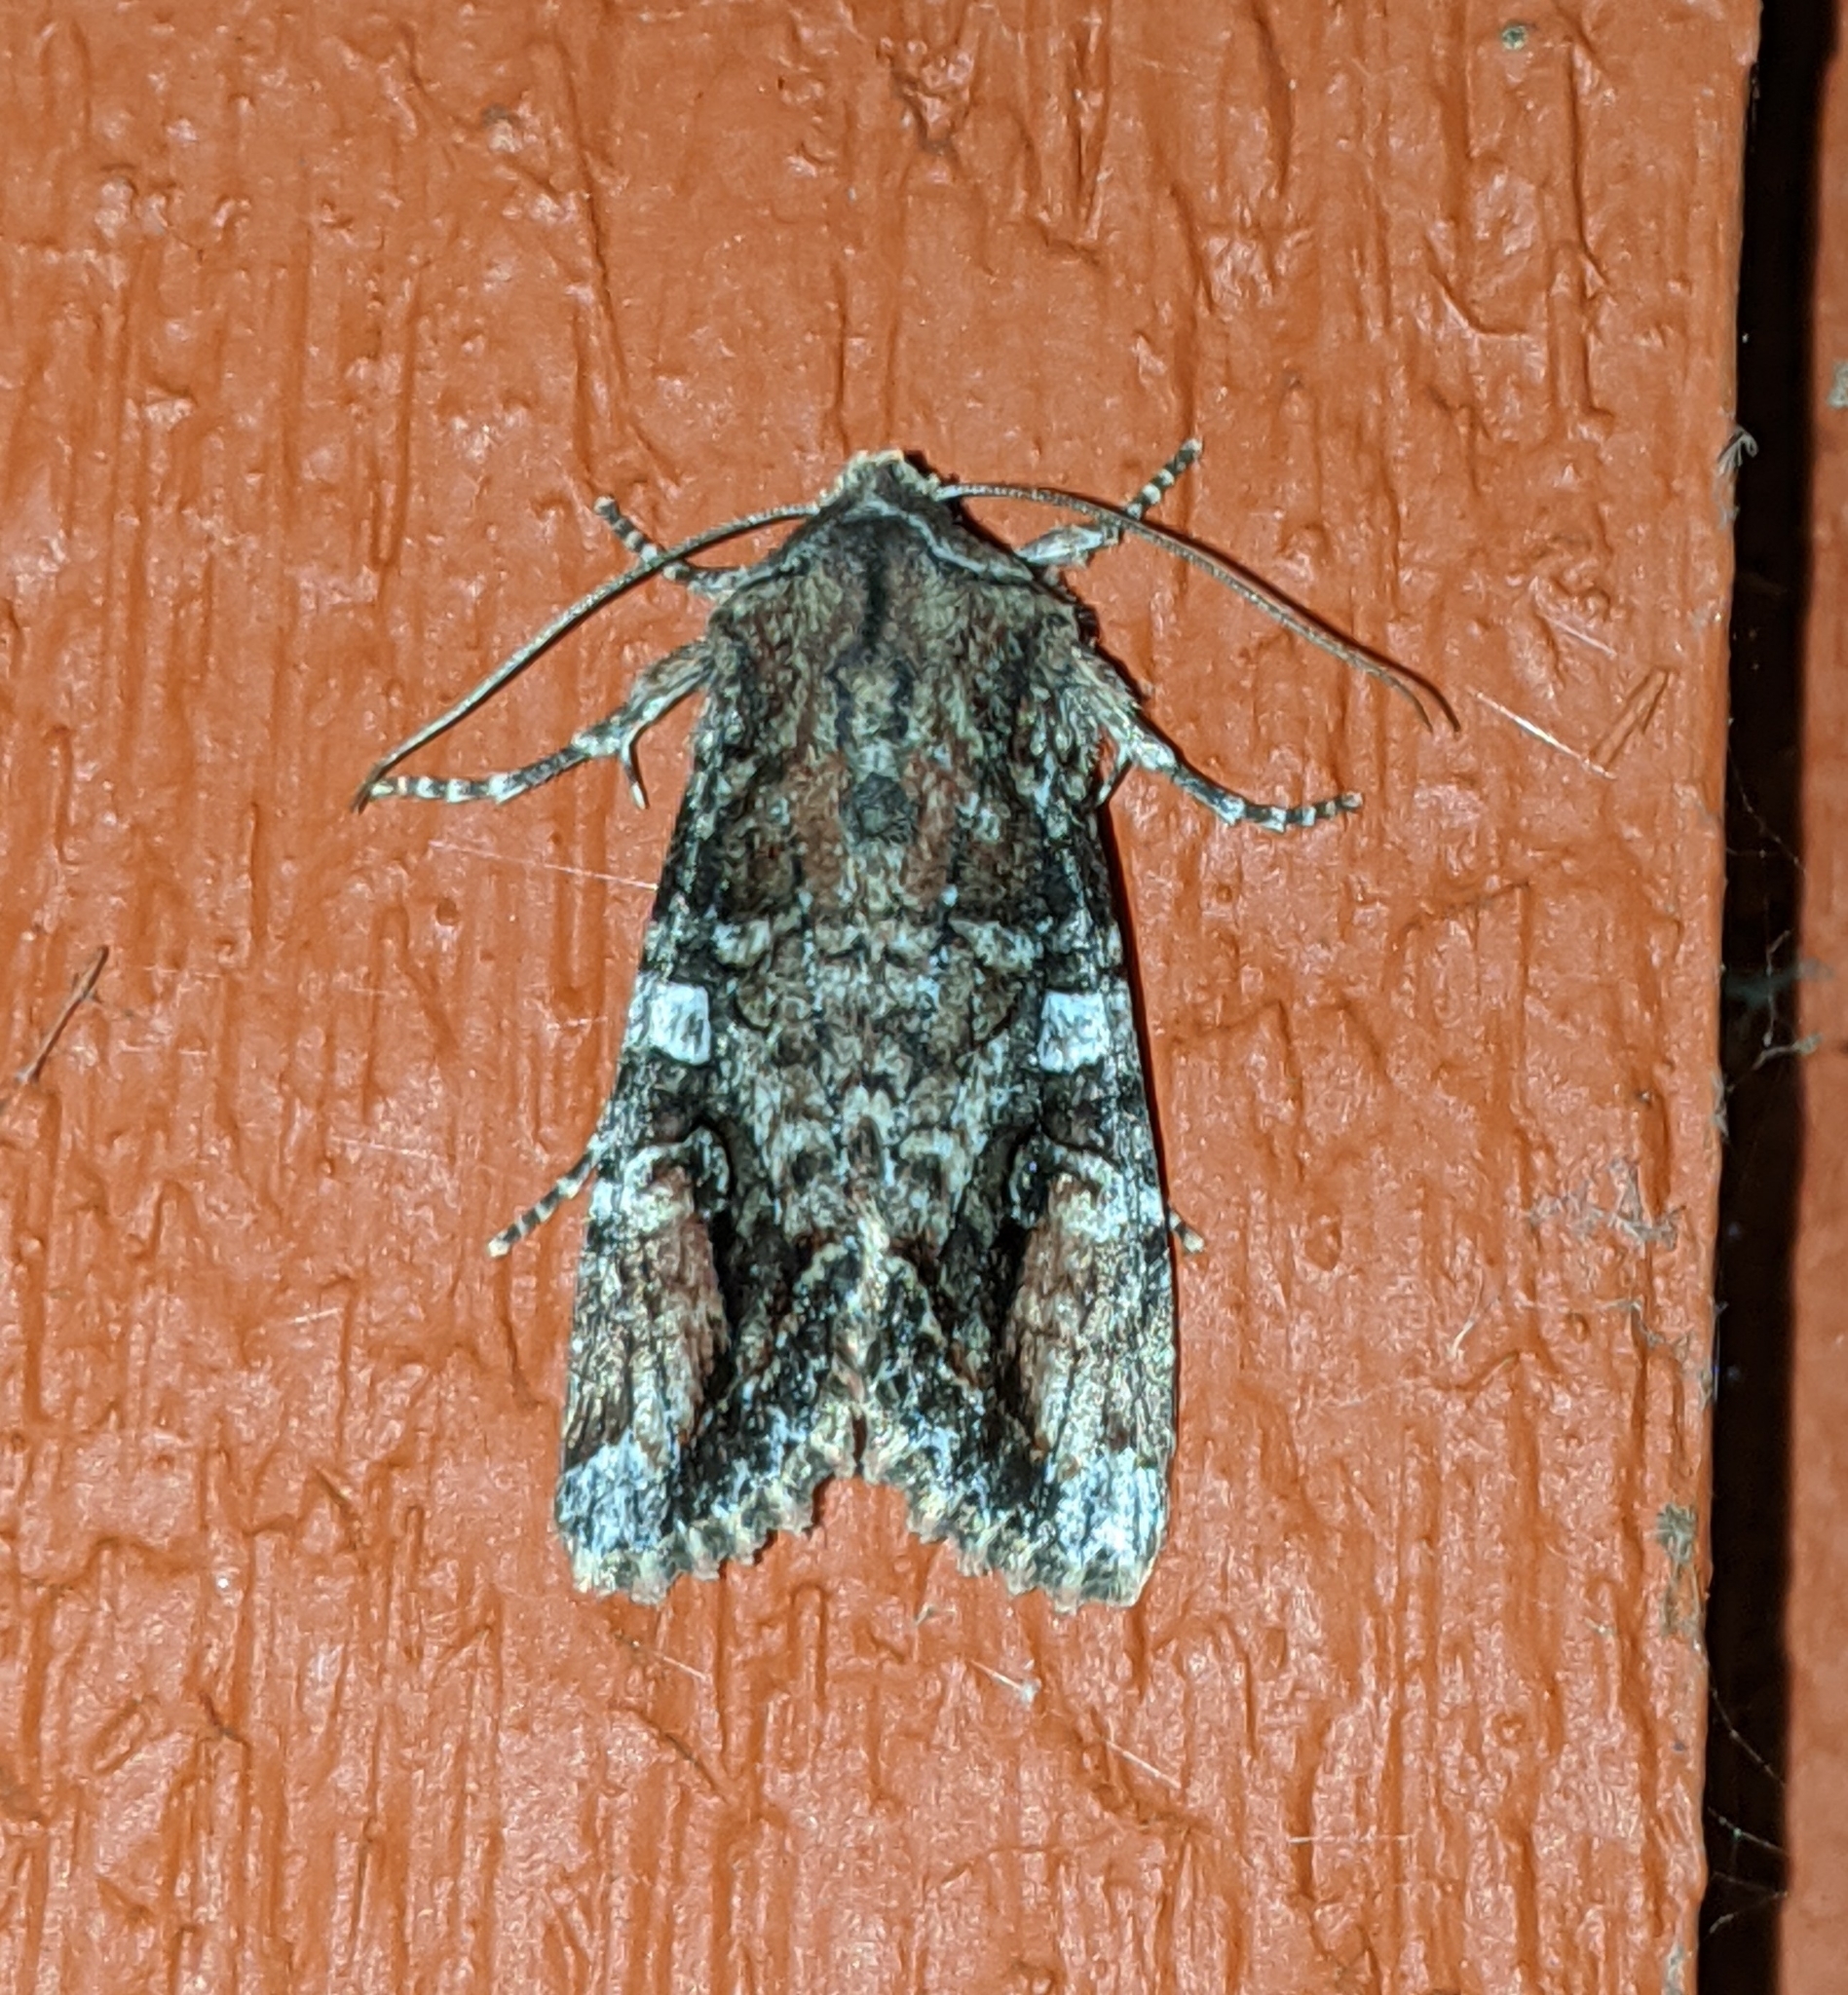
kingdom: Animalia
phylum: Arthropoda
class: Insecta
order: Lepidoptera
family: Noctuidae
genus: Egira
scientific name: Egira perlubens
